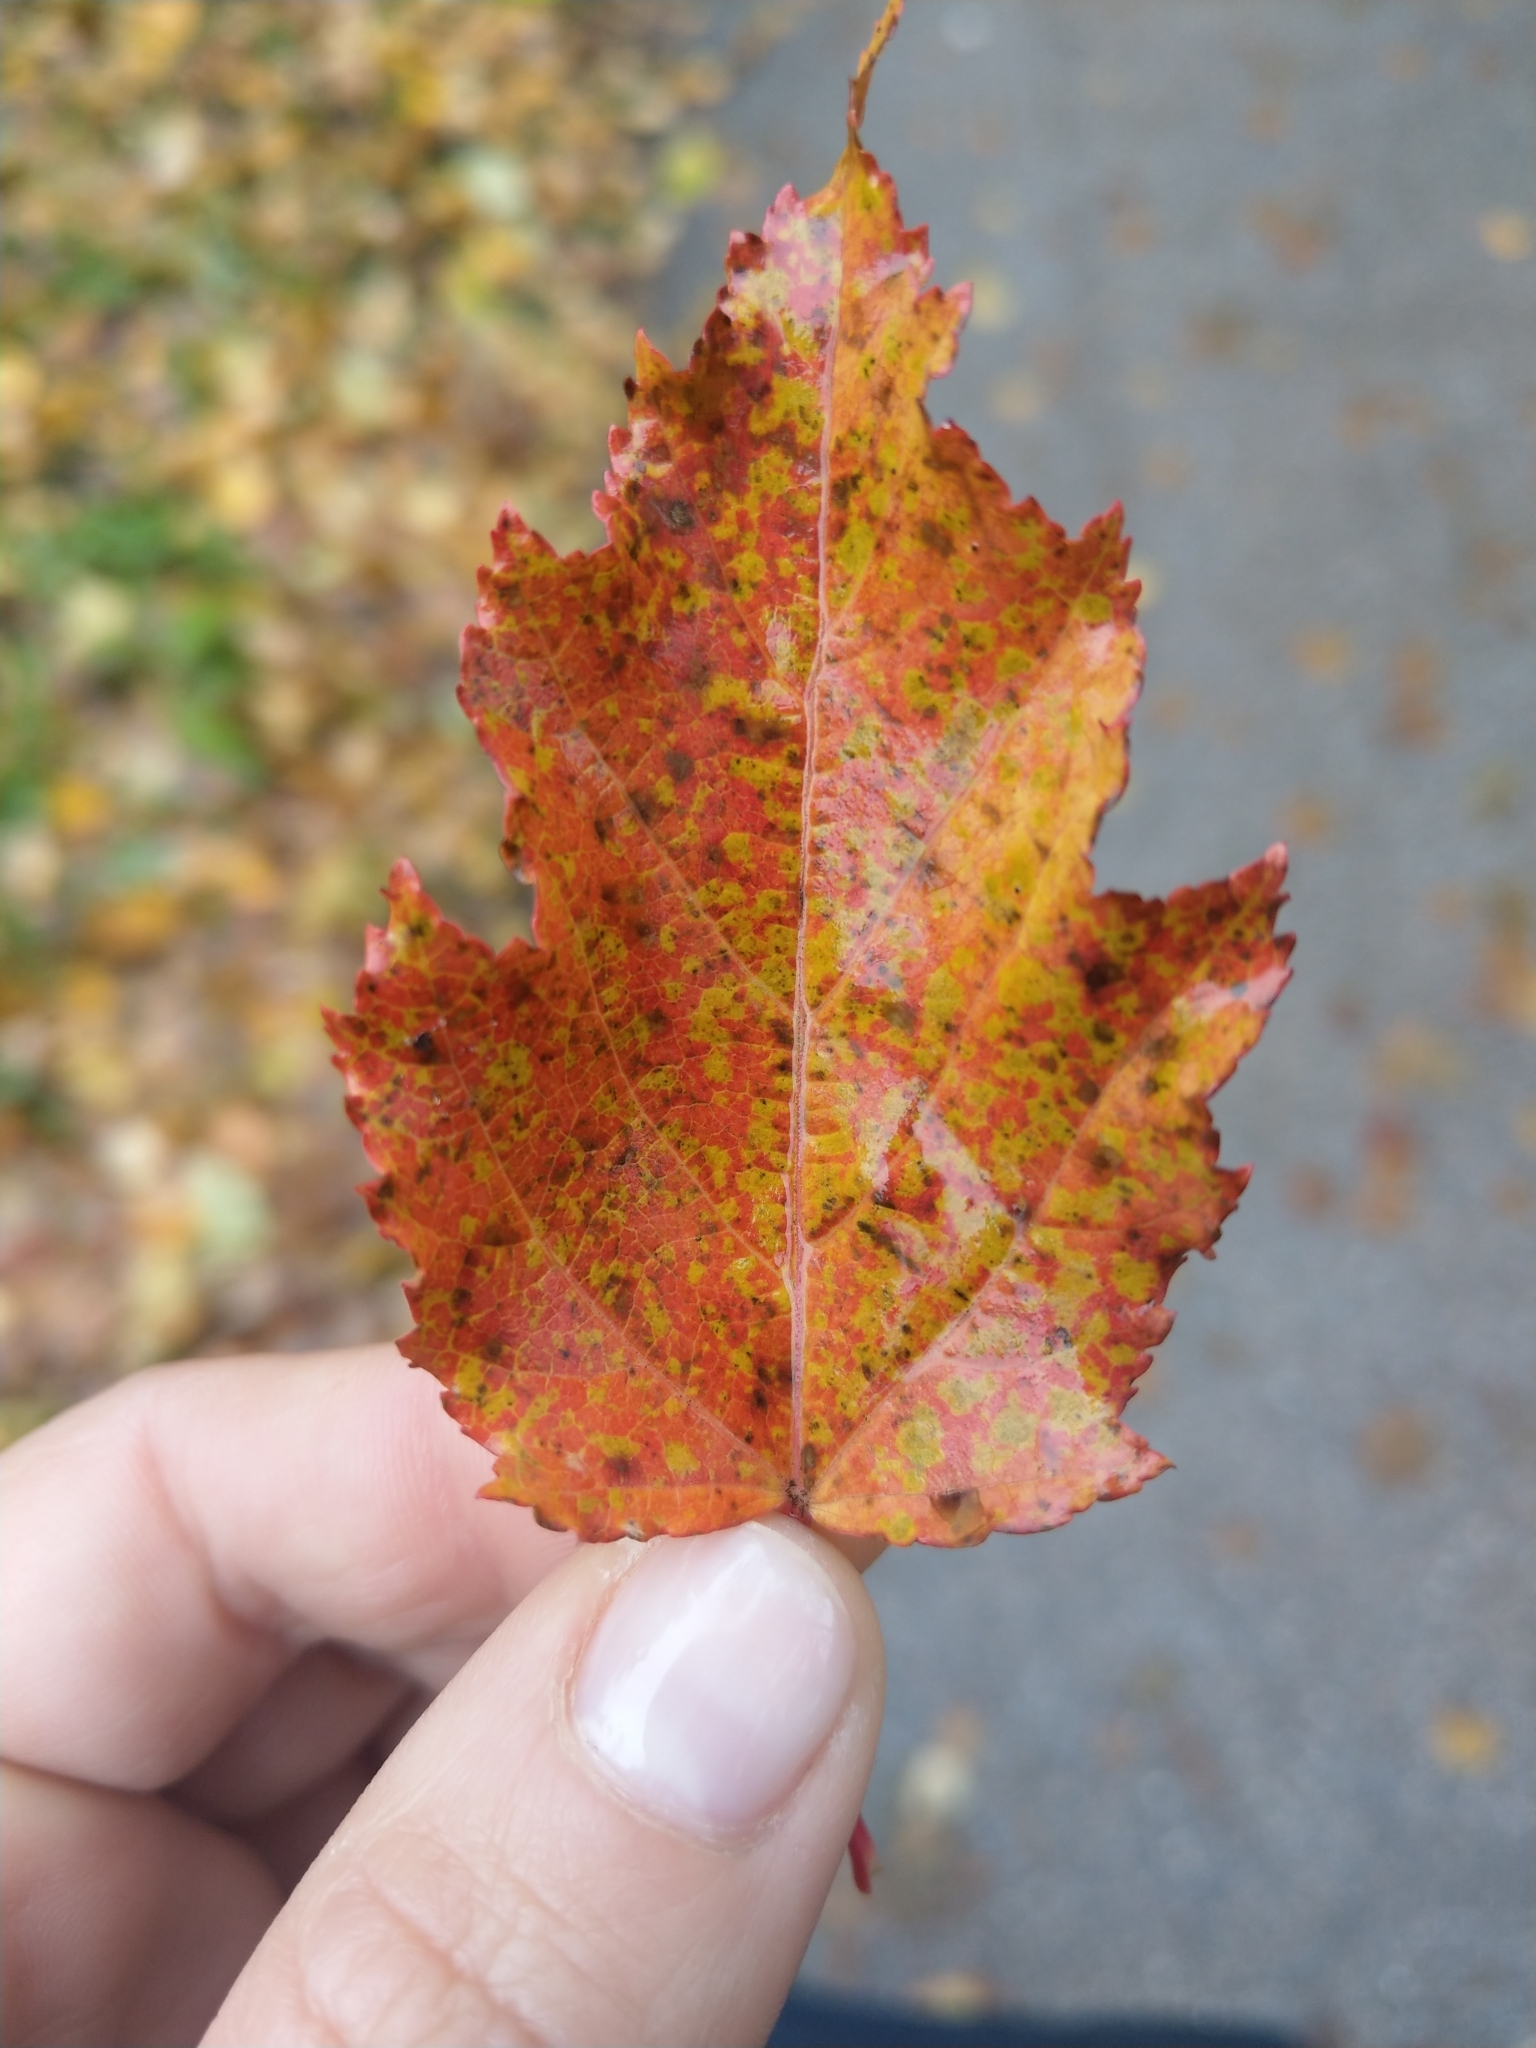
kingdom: Plantae
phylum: Tracheophyta
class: Magnoliopsida
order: Sapindales
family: Sapindaceae
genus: Acer
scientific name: Acer tataricum
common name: Tartar maple
